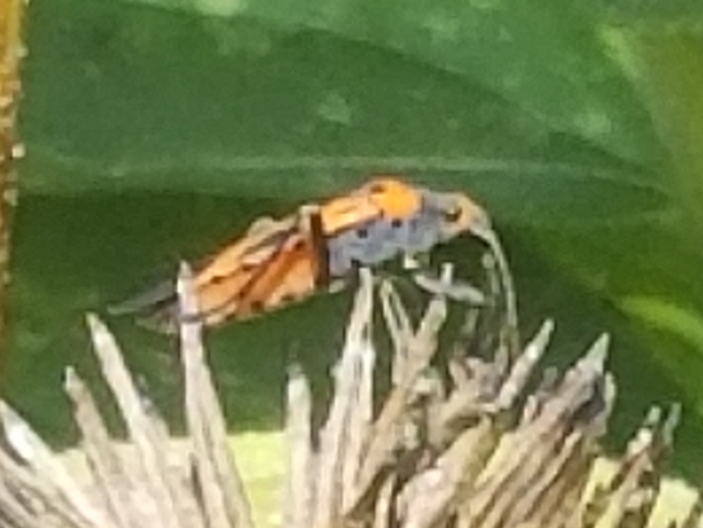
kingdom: Animalia
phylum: Arthropoda
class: Insecta
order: Hemiptera
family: Lygaeidae
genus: Lygaeus
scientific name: Lygaeus turcicus
